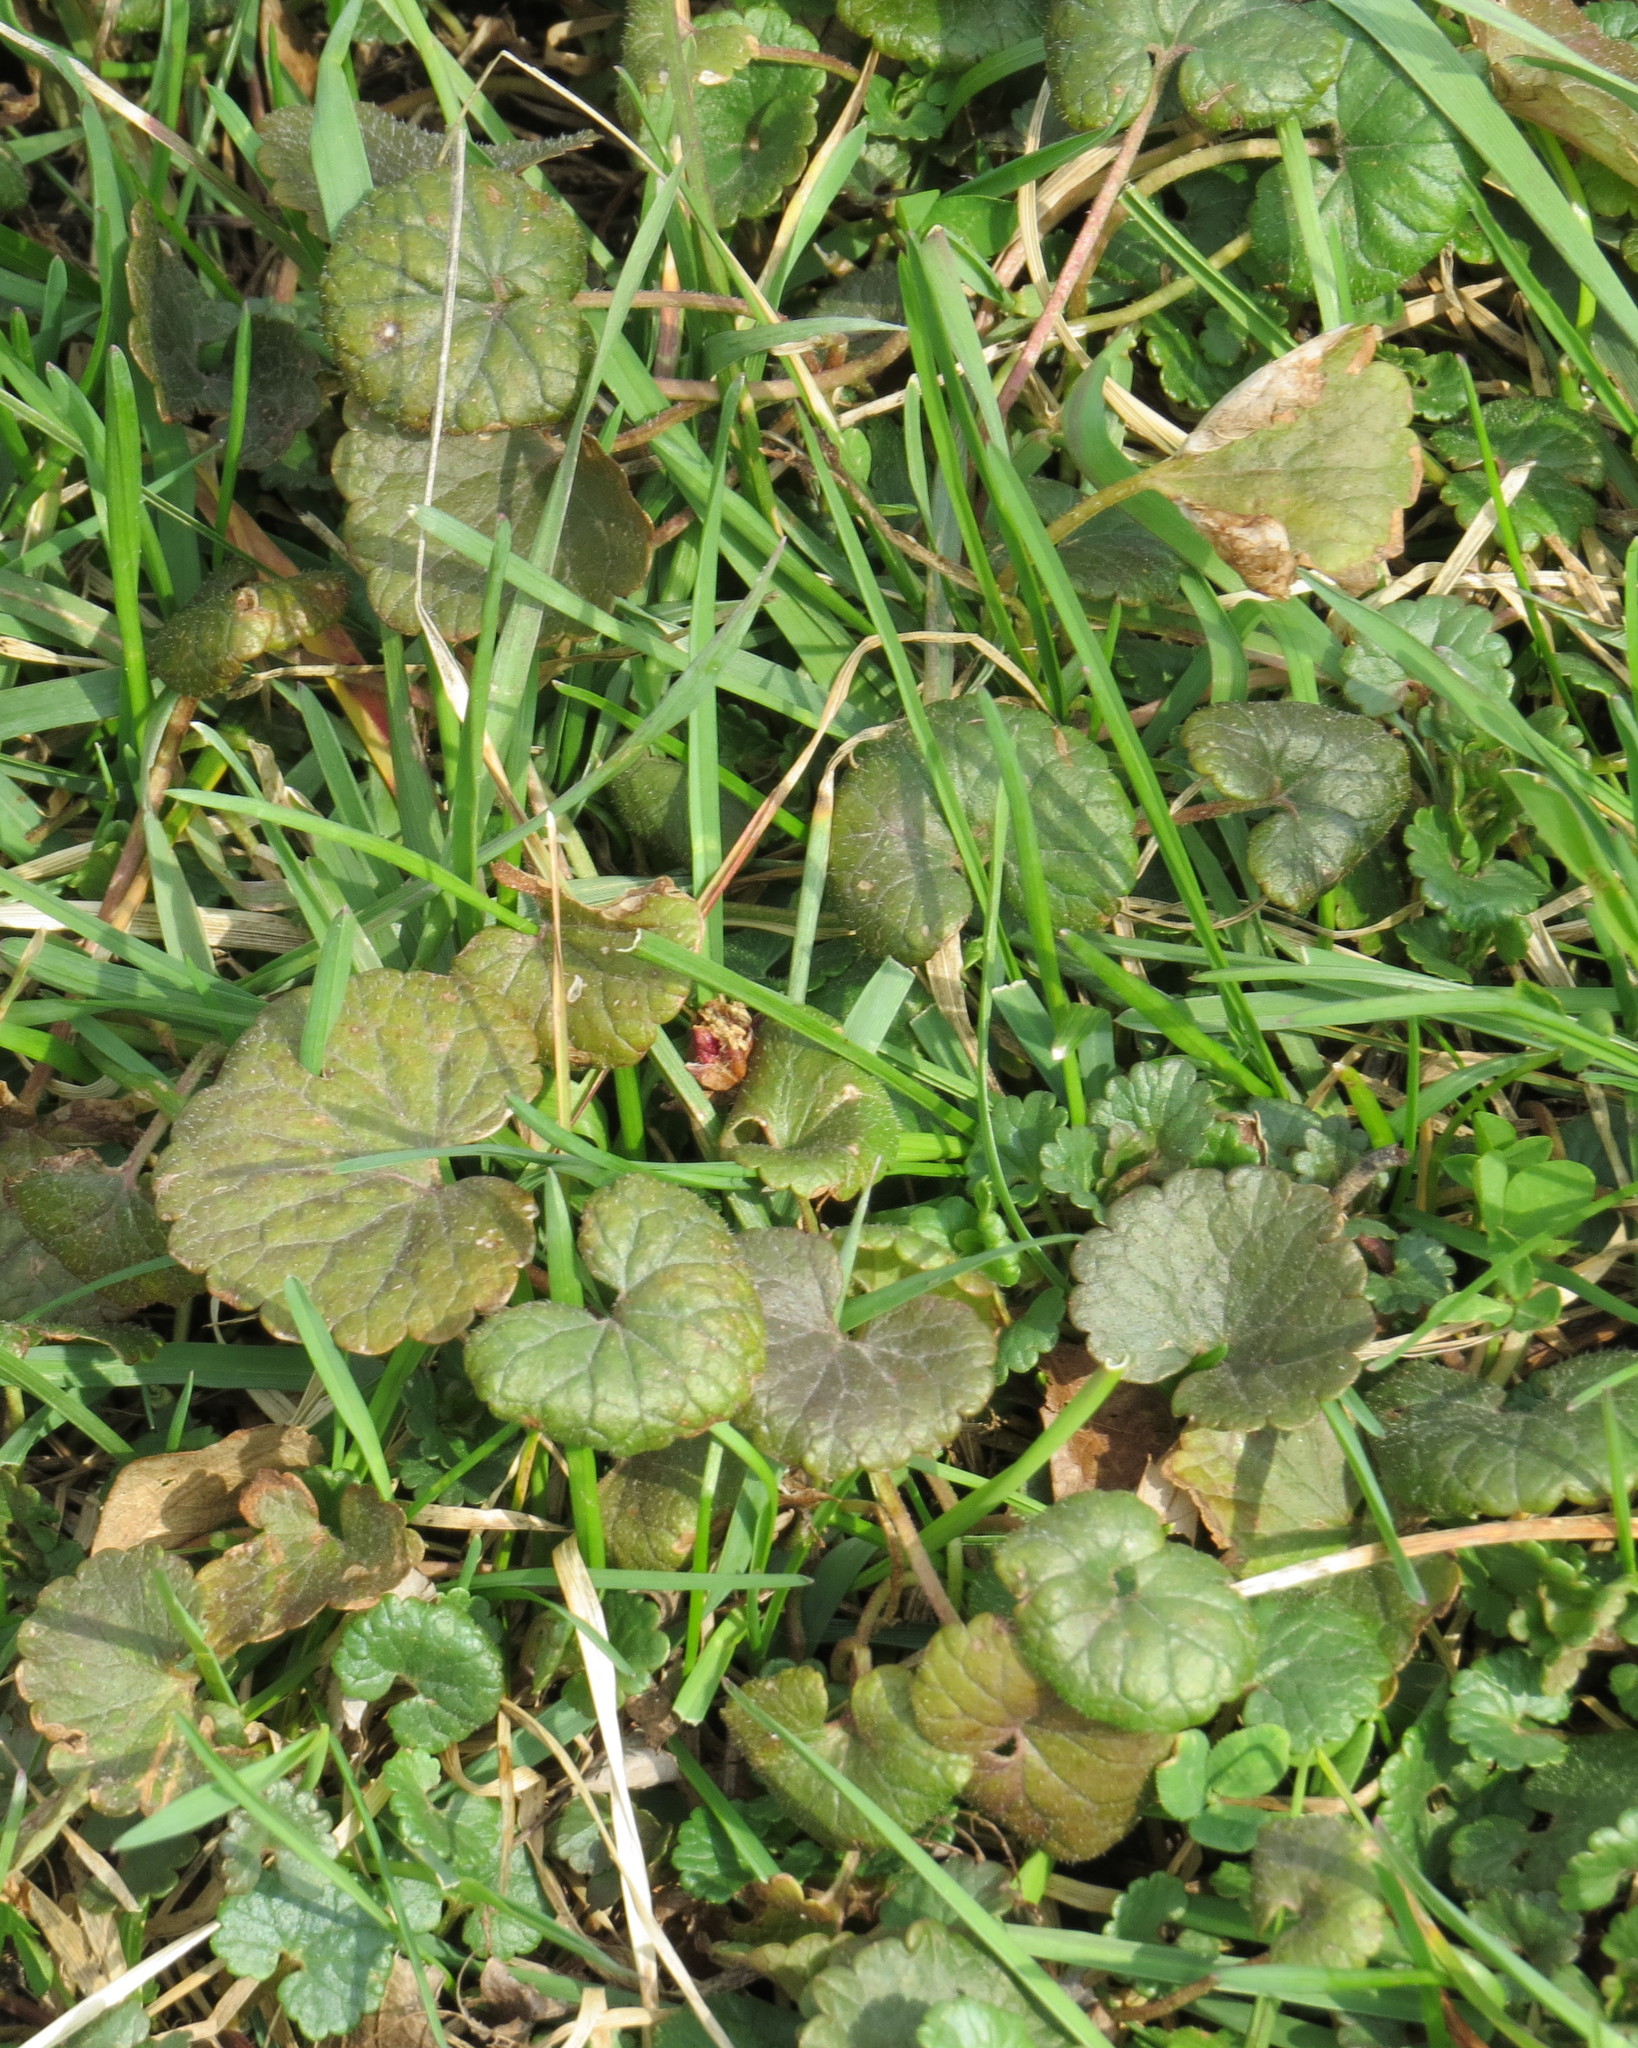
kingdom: Plantae
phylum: Tracheophyta
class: Magnoliopsida
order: Lamiales
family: Lamiaceae
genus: Glechoma
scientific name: Glechoma hederacea
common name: Ground ivy
